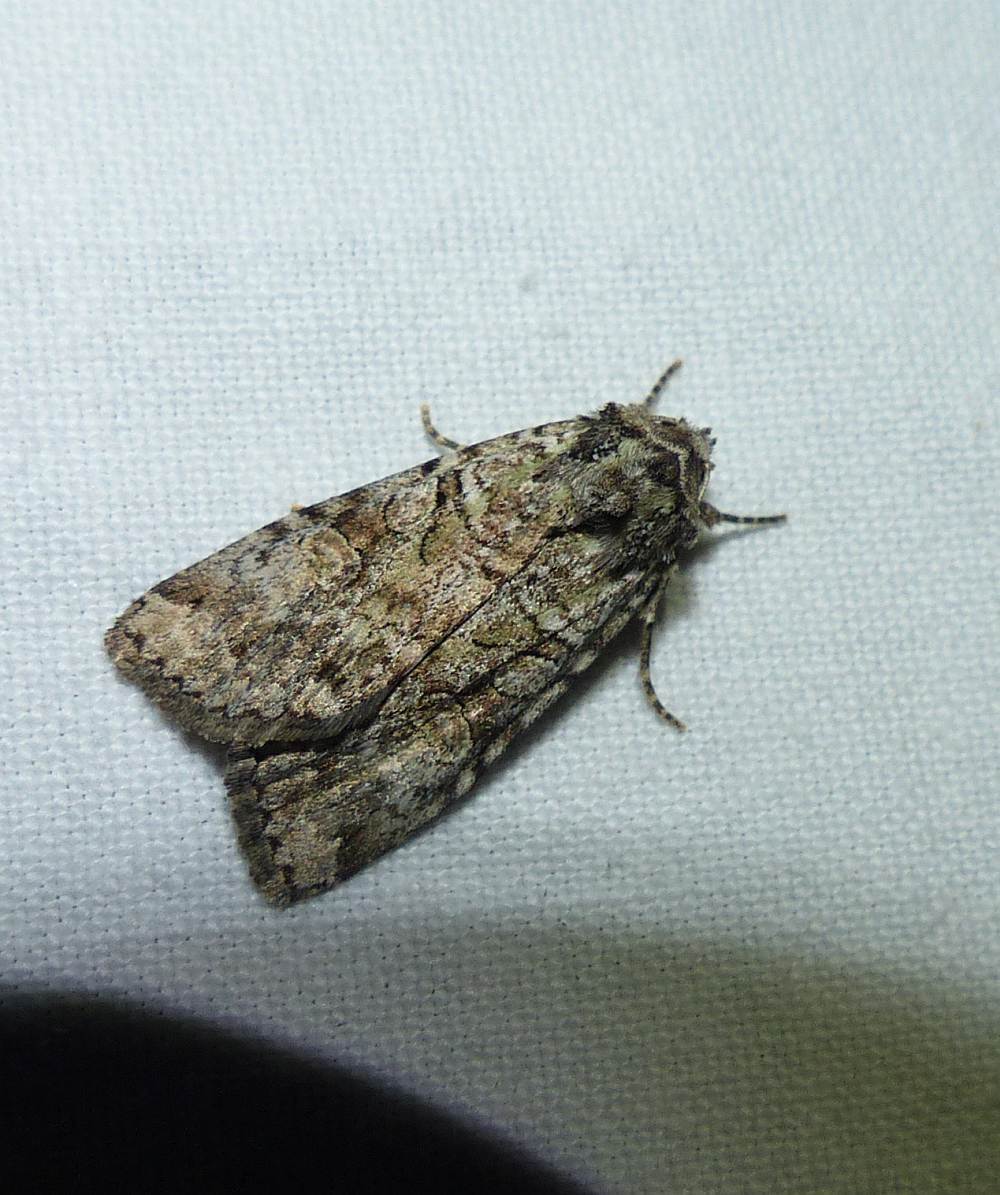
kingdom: Animalia
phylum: Arthropoda
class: Insecta
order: Lepidoptera
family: Noctuidae
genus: Anaplectoides
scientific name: Anaplectoides pressus
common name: Dappled dart
